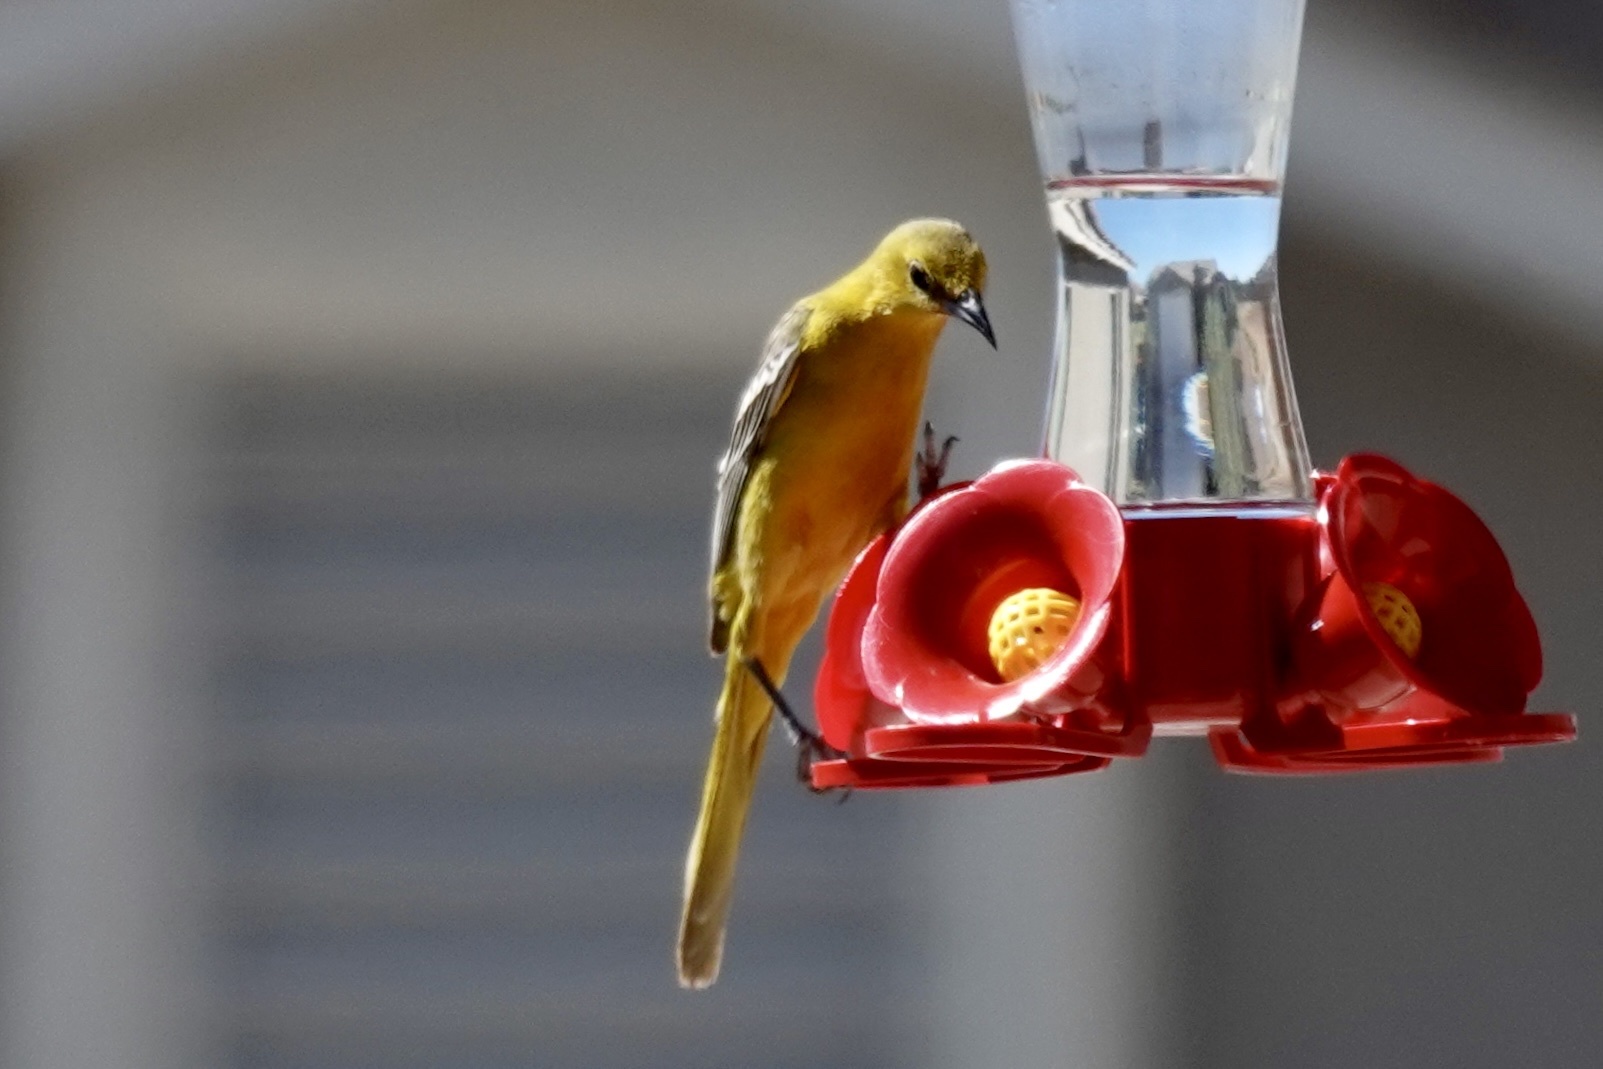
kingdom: Animalia
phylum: Chordata
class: Aves
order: Passeriformes
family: Icteridae
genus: Icterus
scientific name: Icterus cucullatus
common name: Hooded oriole
